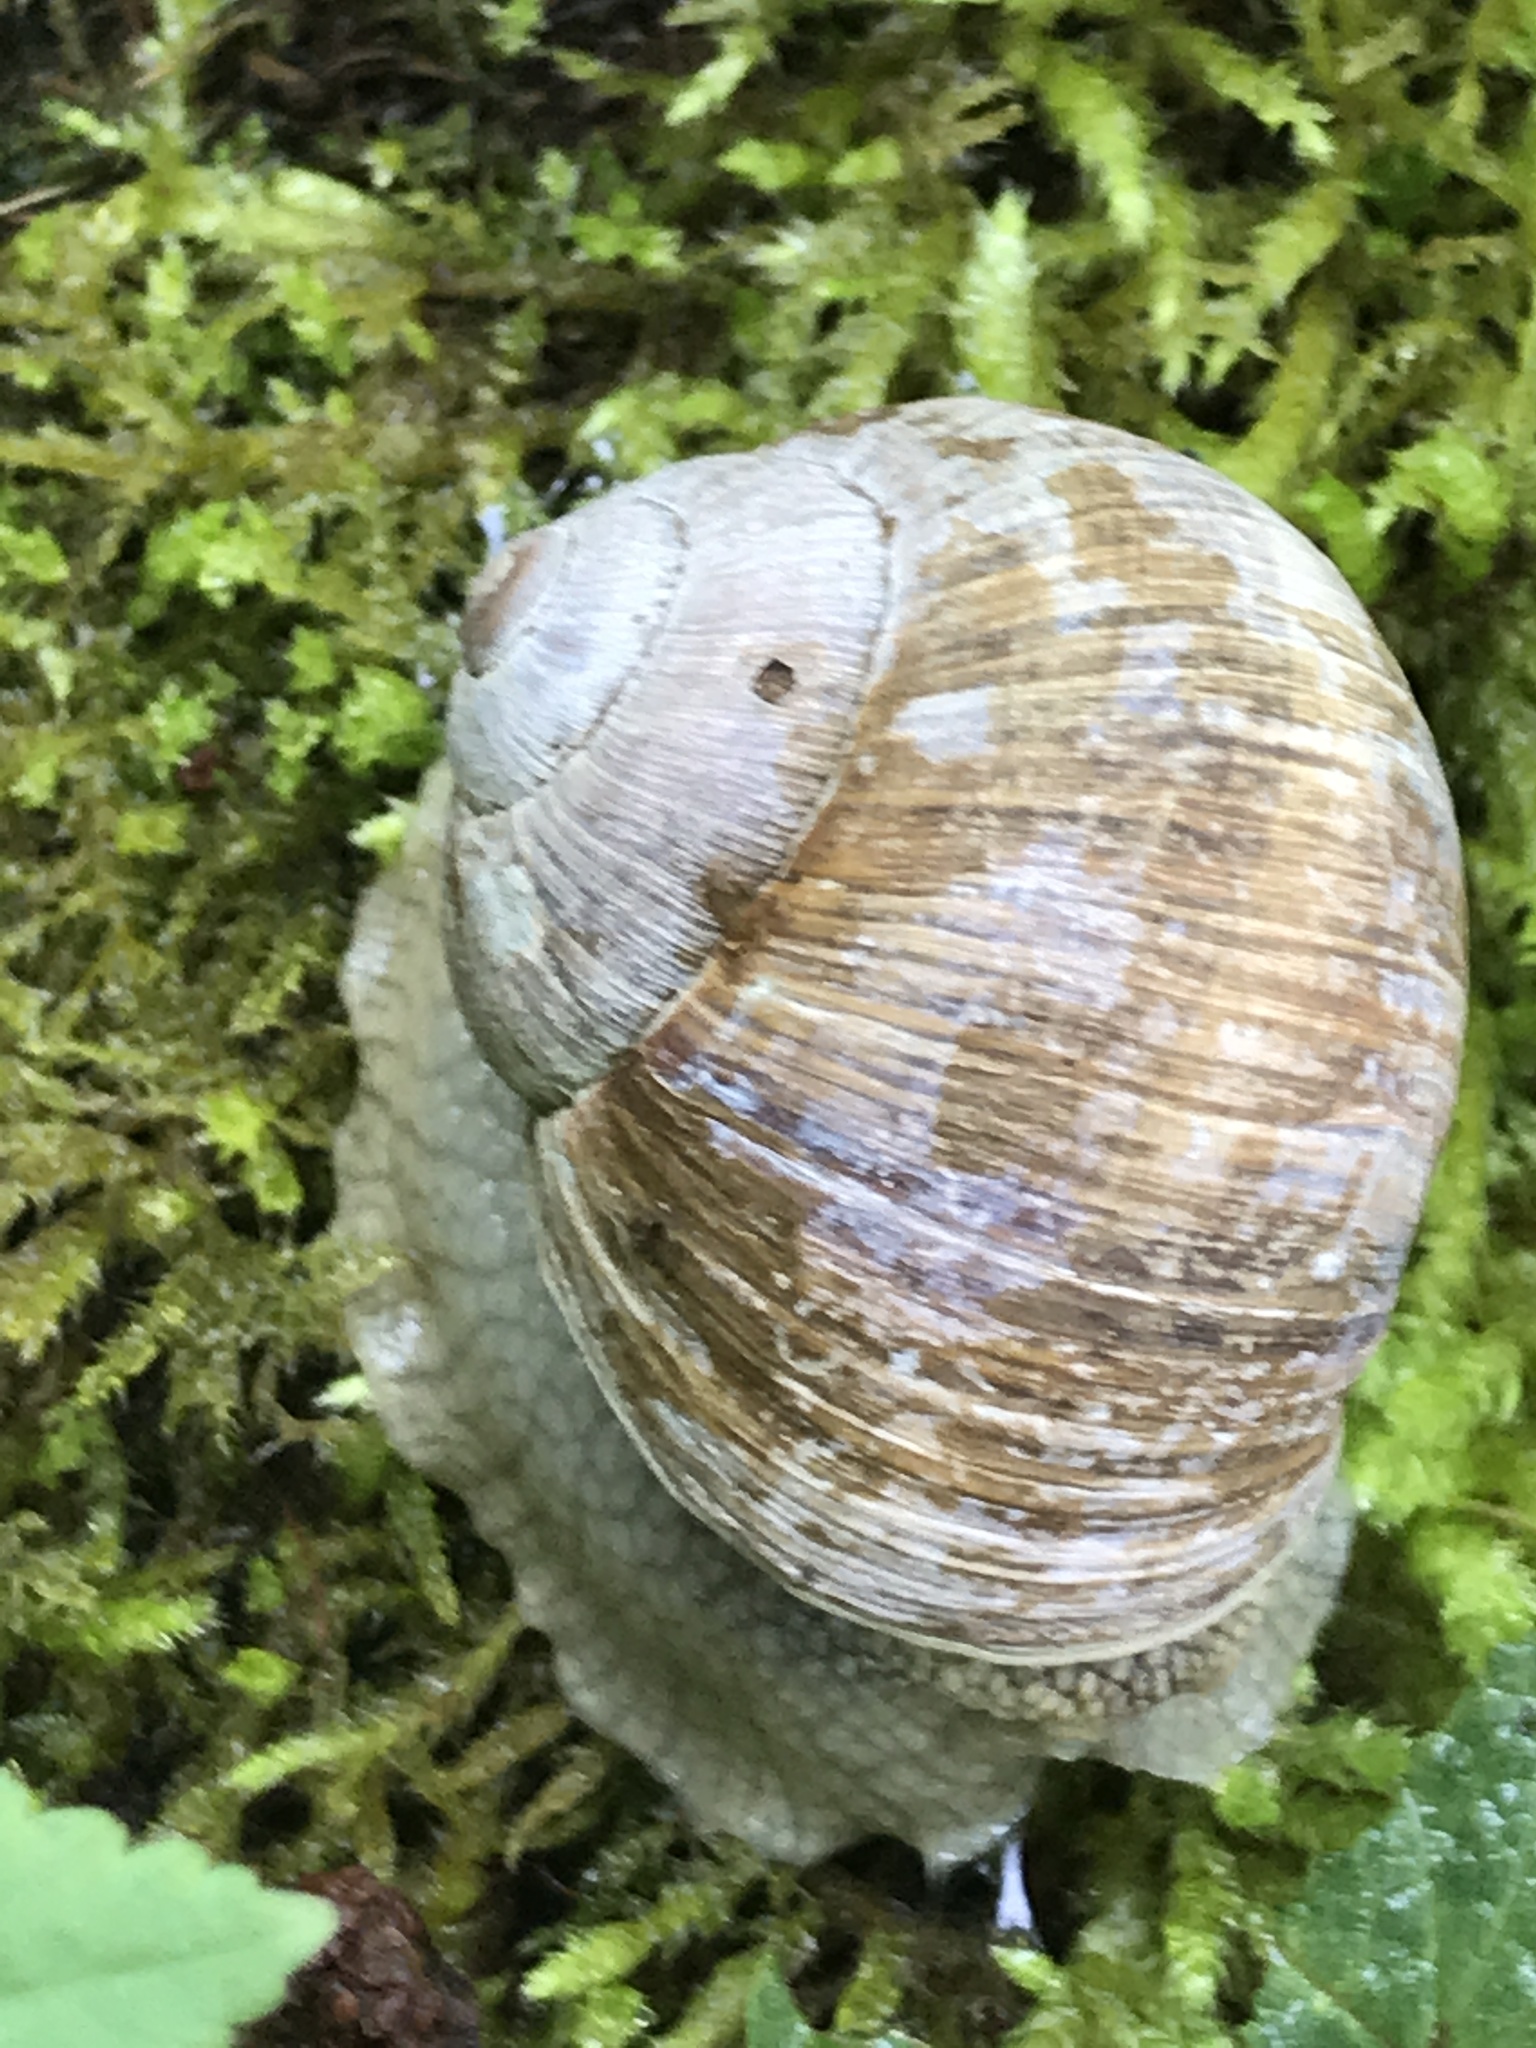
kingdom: Animalia
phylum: Mollusca
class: Gastropoda
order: Stylommatophora
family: Helicidae
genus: Helix
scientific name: Helix pomatia
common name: Roman snail
